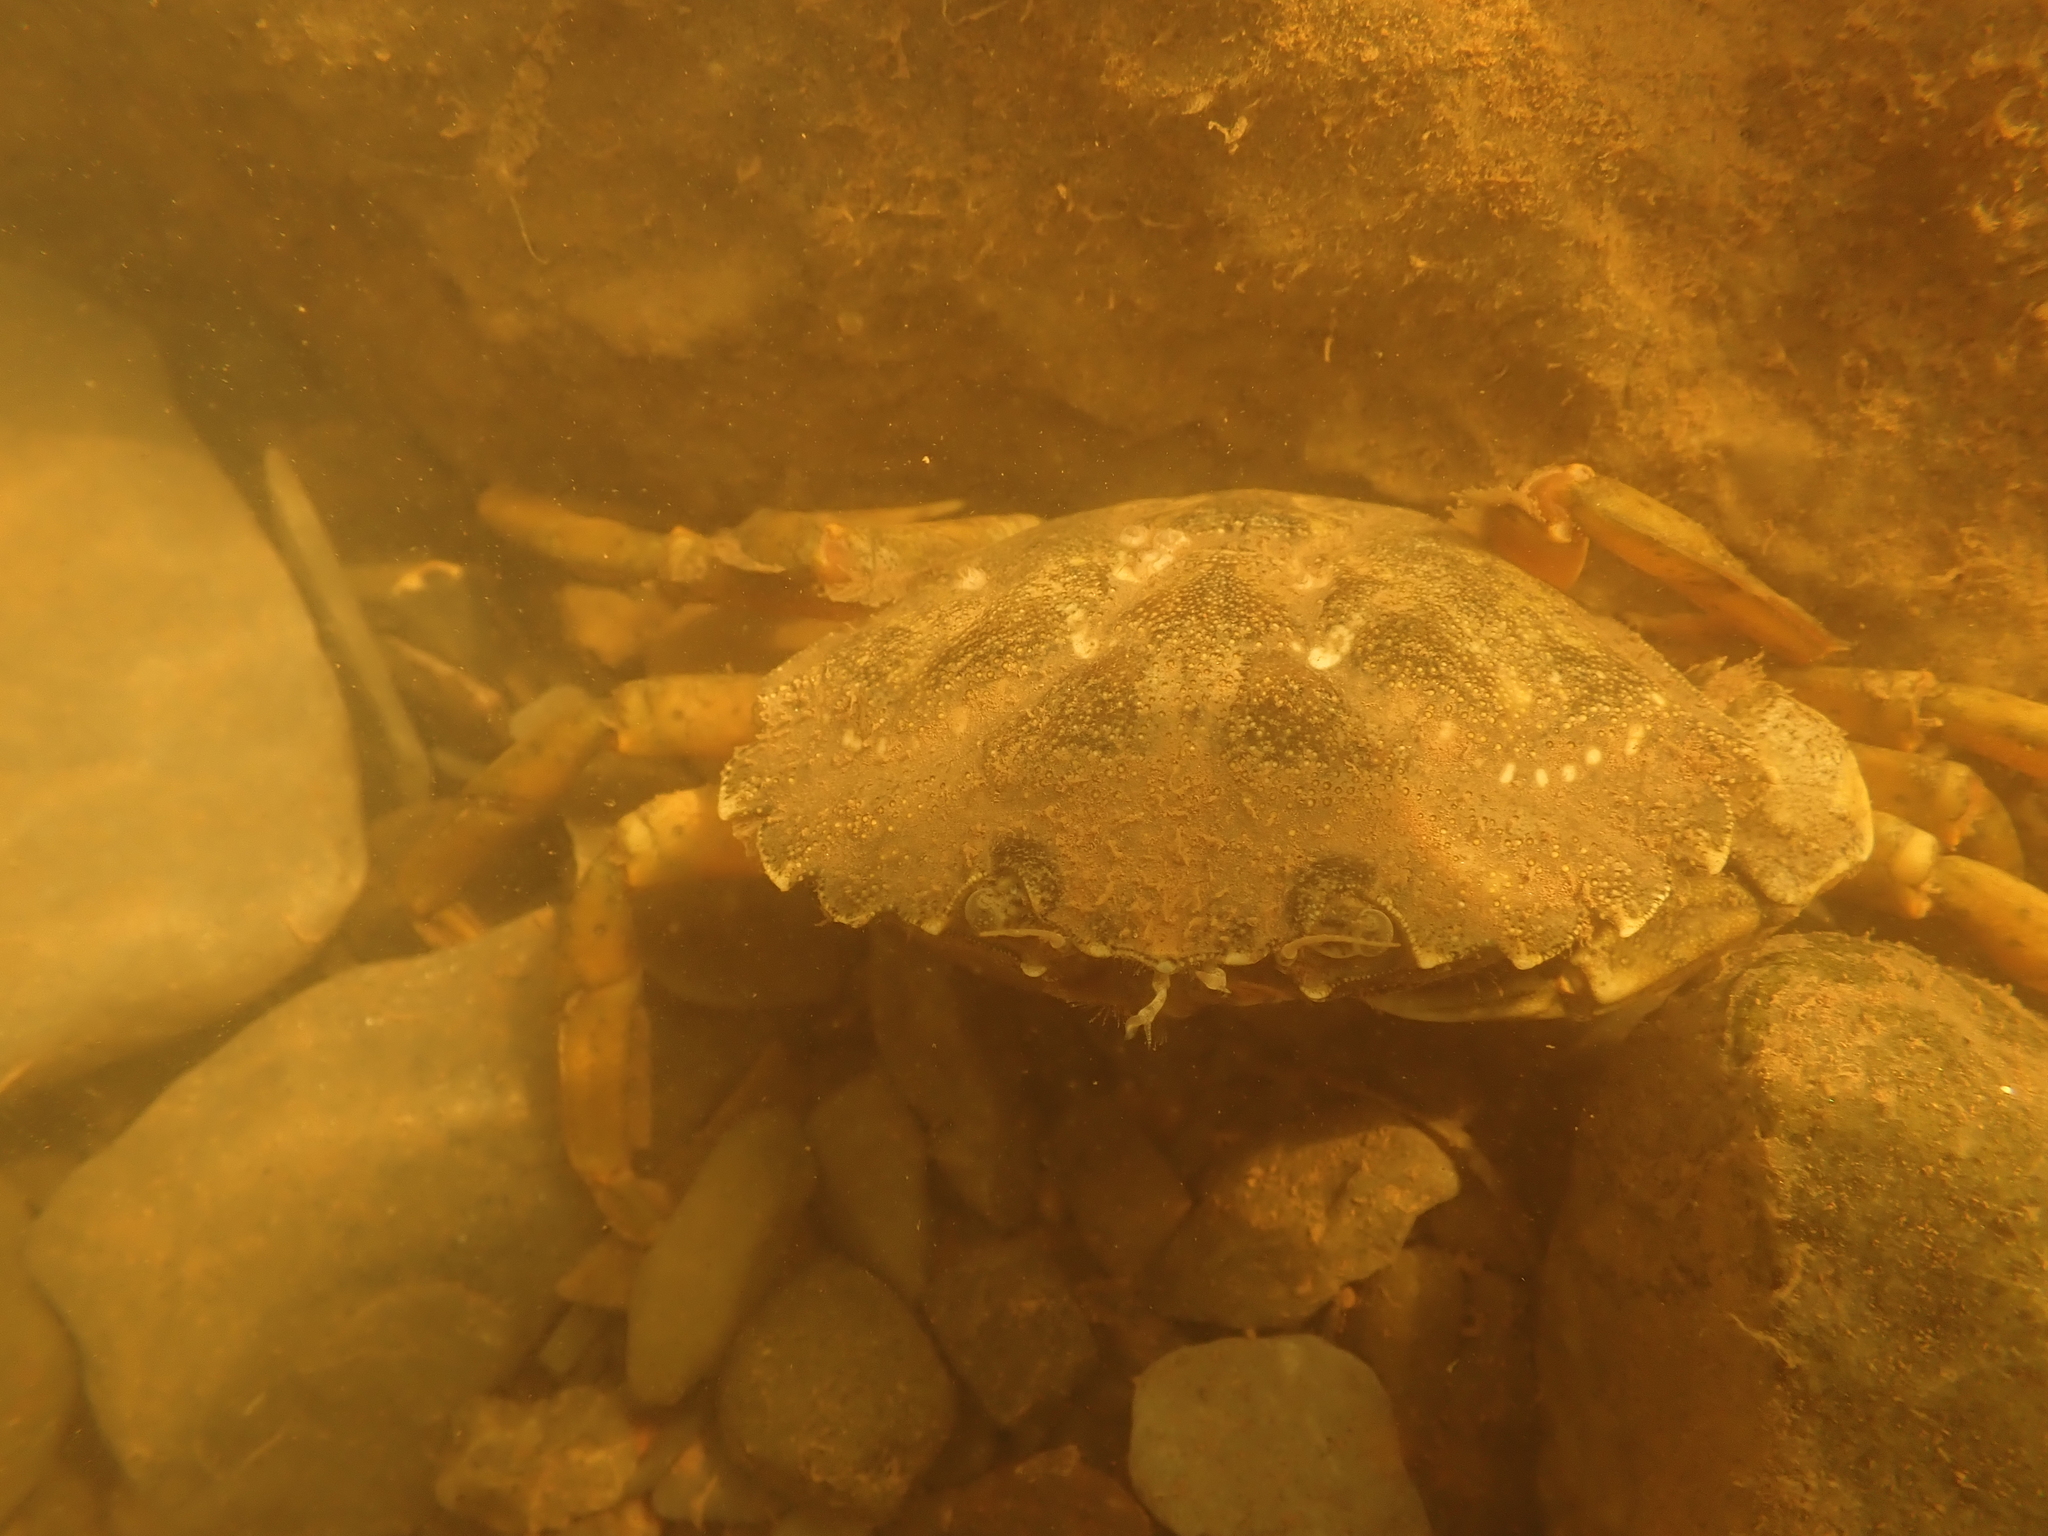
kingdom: Animalia
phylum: Arthropoda
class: Malacostraca
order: Decapoda
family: Carcinidae
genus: Carcinus
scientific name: Carcinus maenas
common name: European green crab
